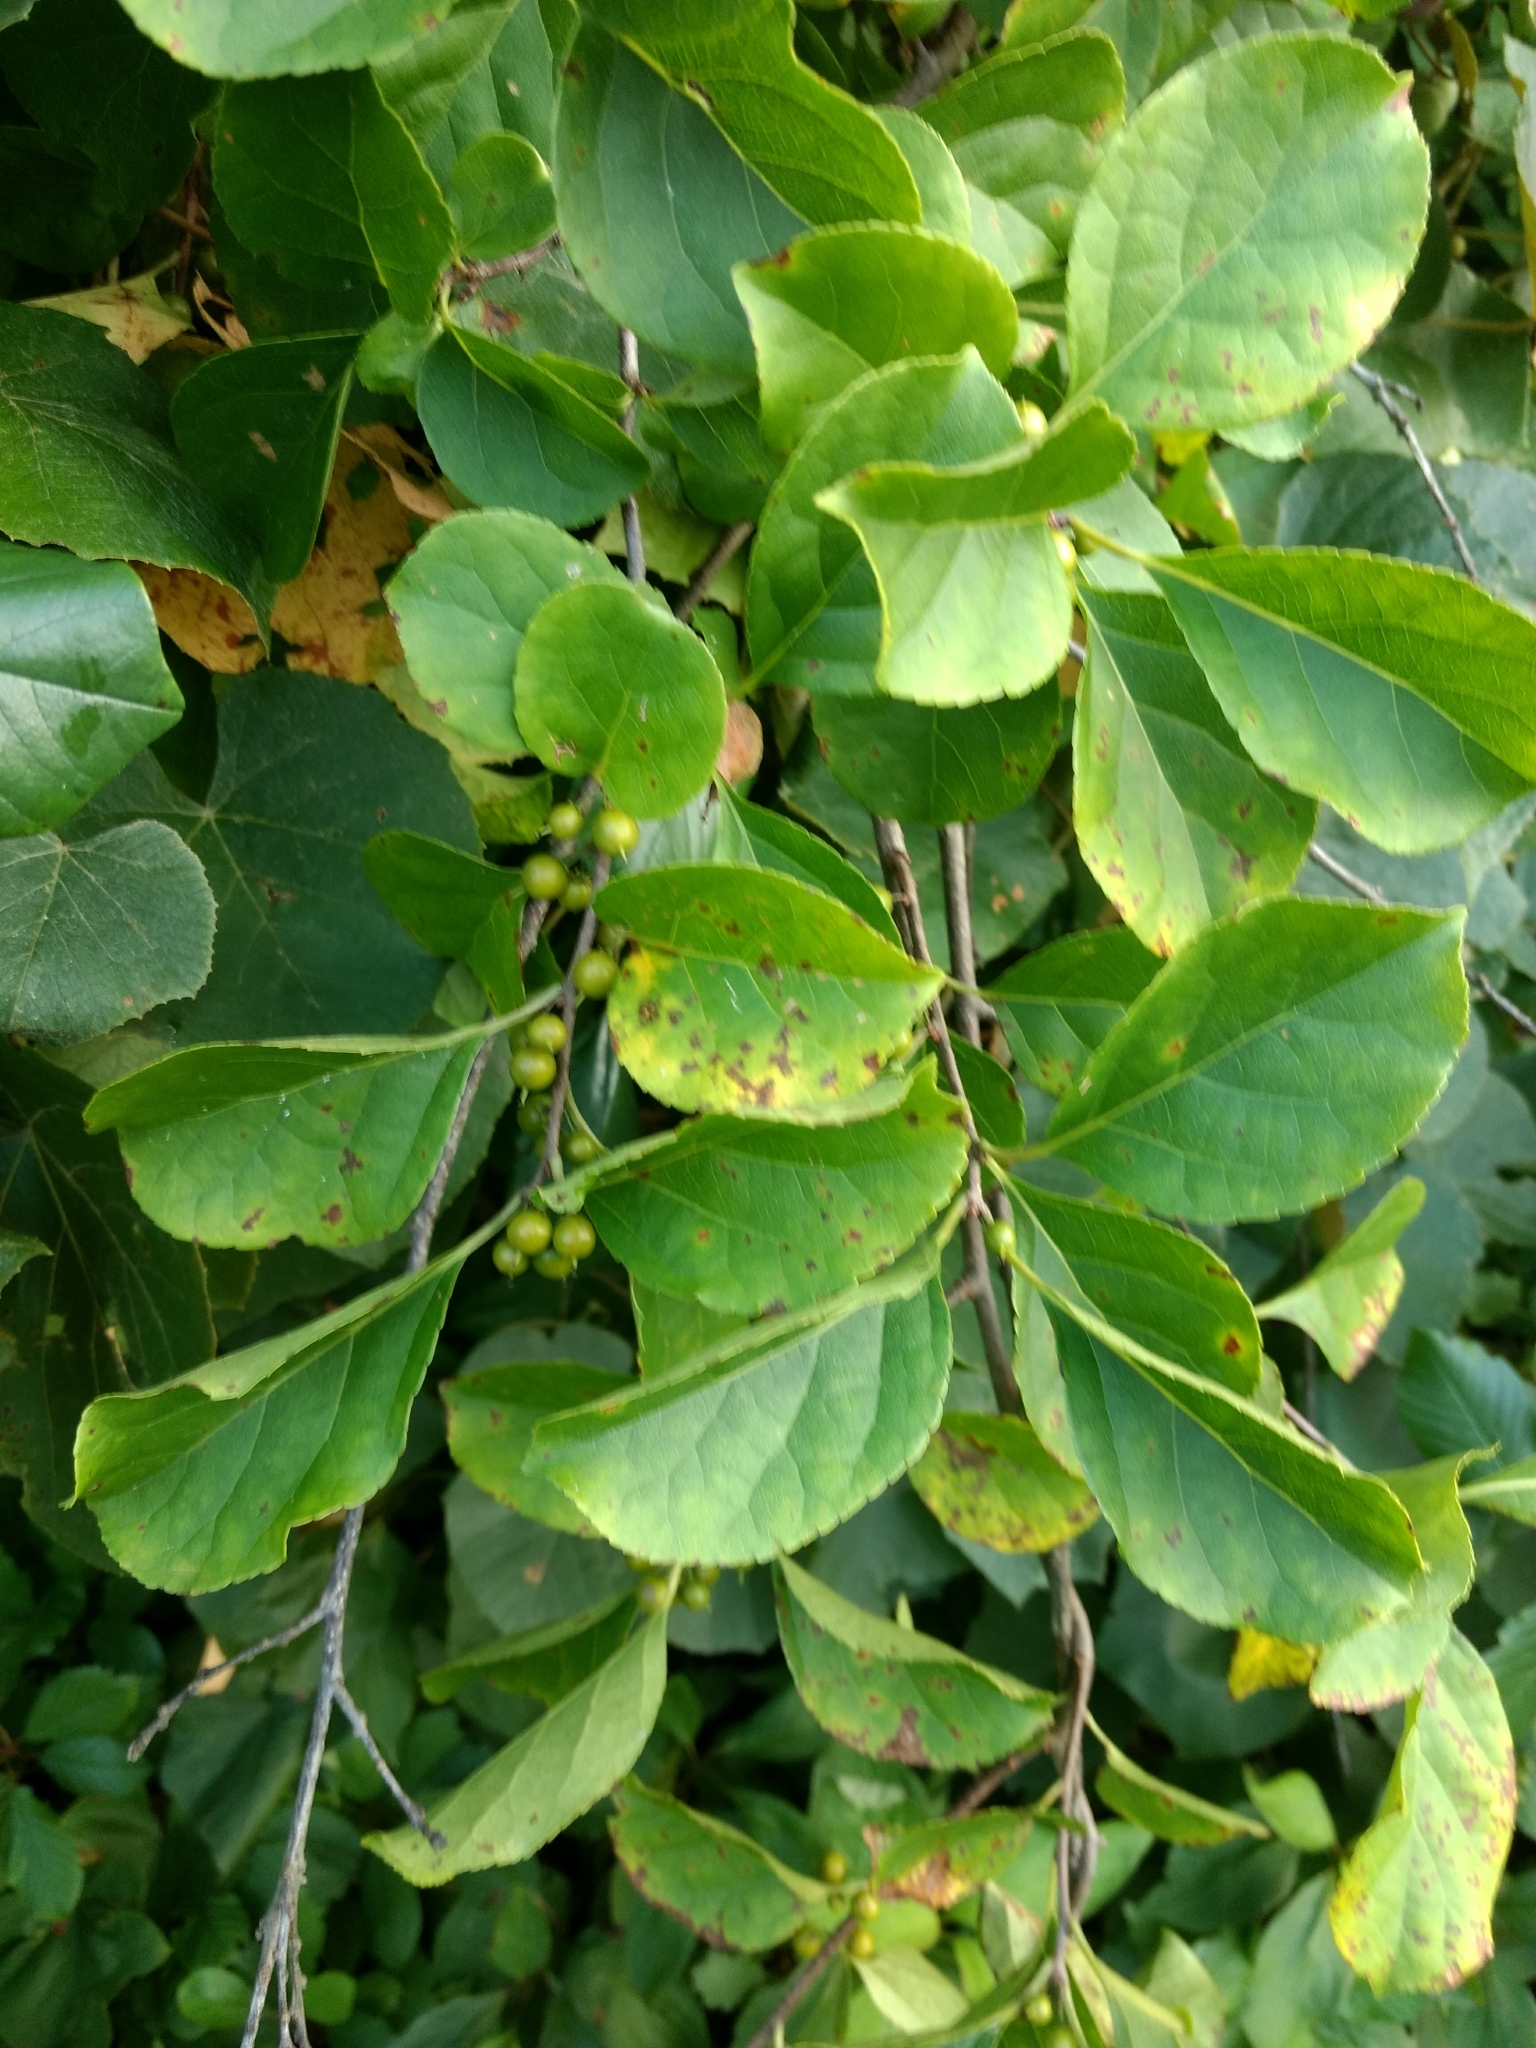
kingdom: Plantae
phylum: Tracheophyta
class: Magnoliopsida
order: Celastrales
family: Celastraceae
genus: Celastrus
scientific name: Celastrus orbiculatus
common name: Oriental bittersweet
